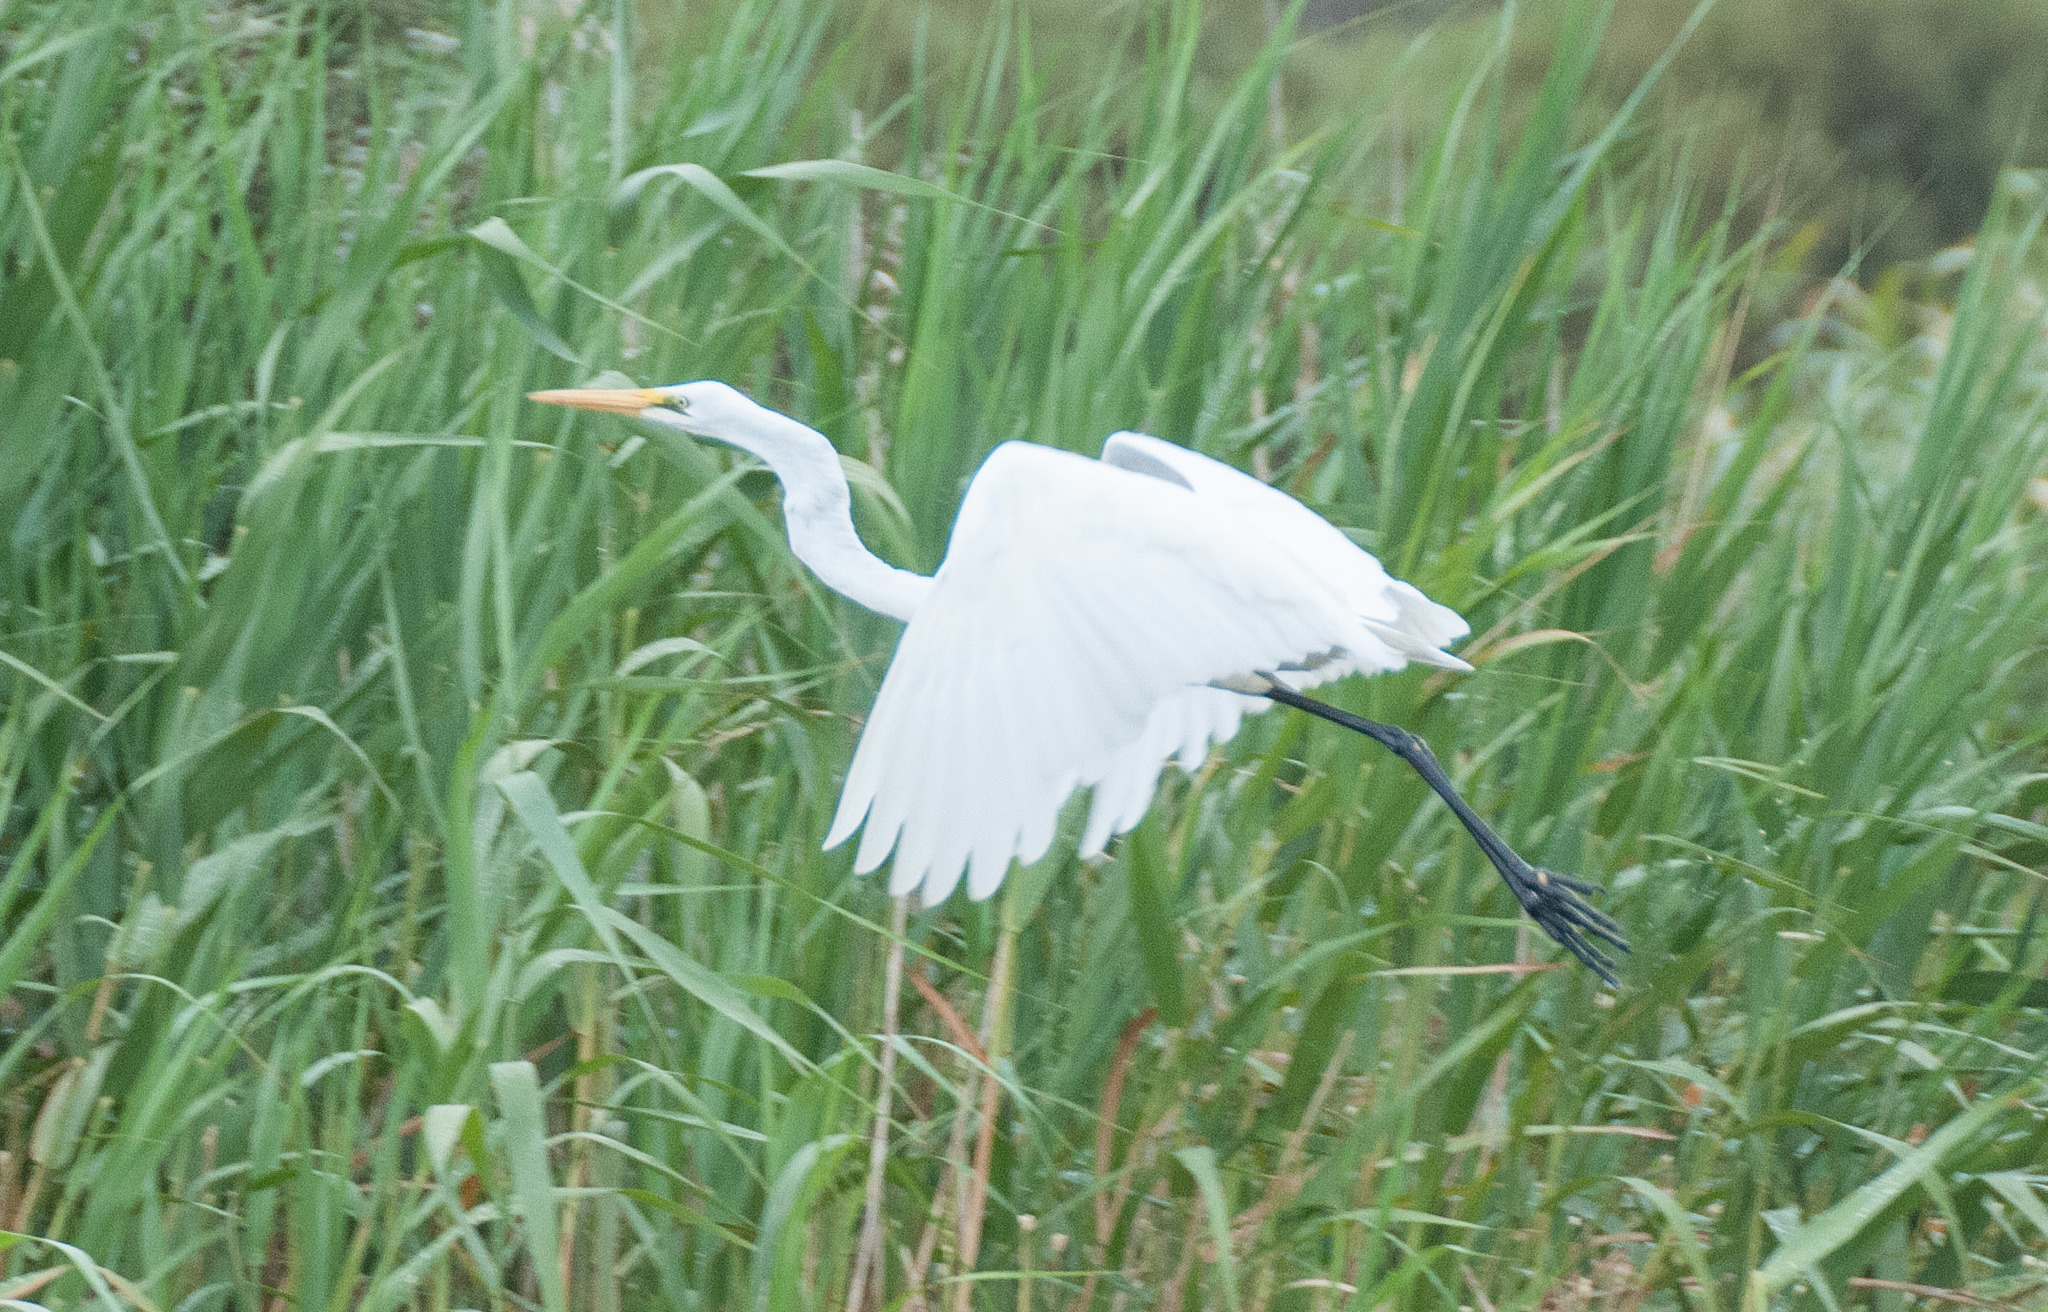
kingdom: Animalia
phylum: Chordata
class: Aves
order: Pelecaniformes
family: Ardeidae
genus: Ardea
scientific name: Ardea modesta
